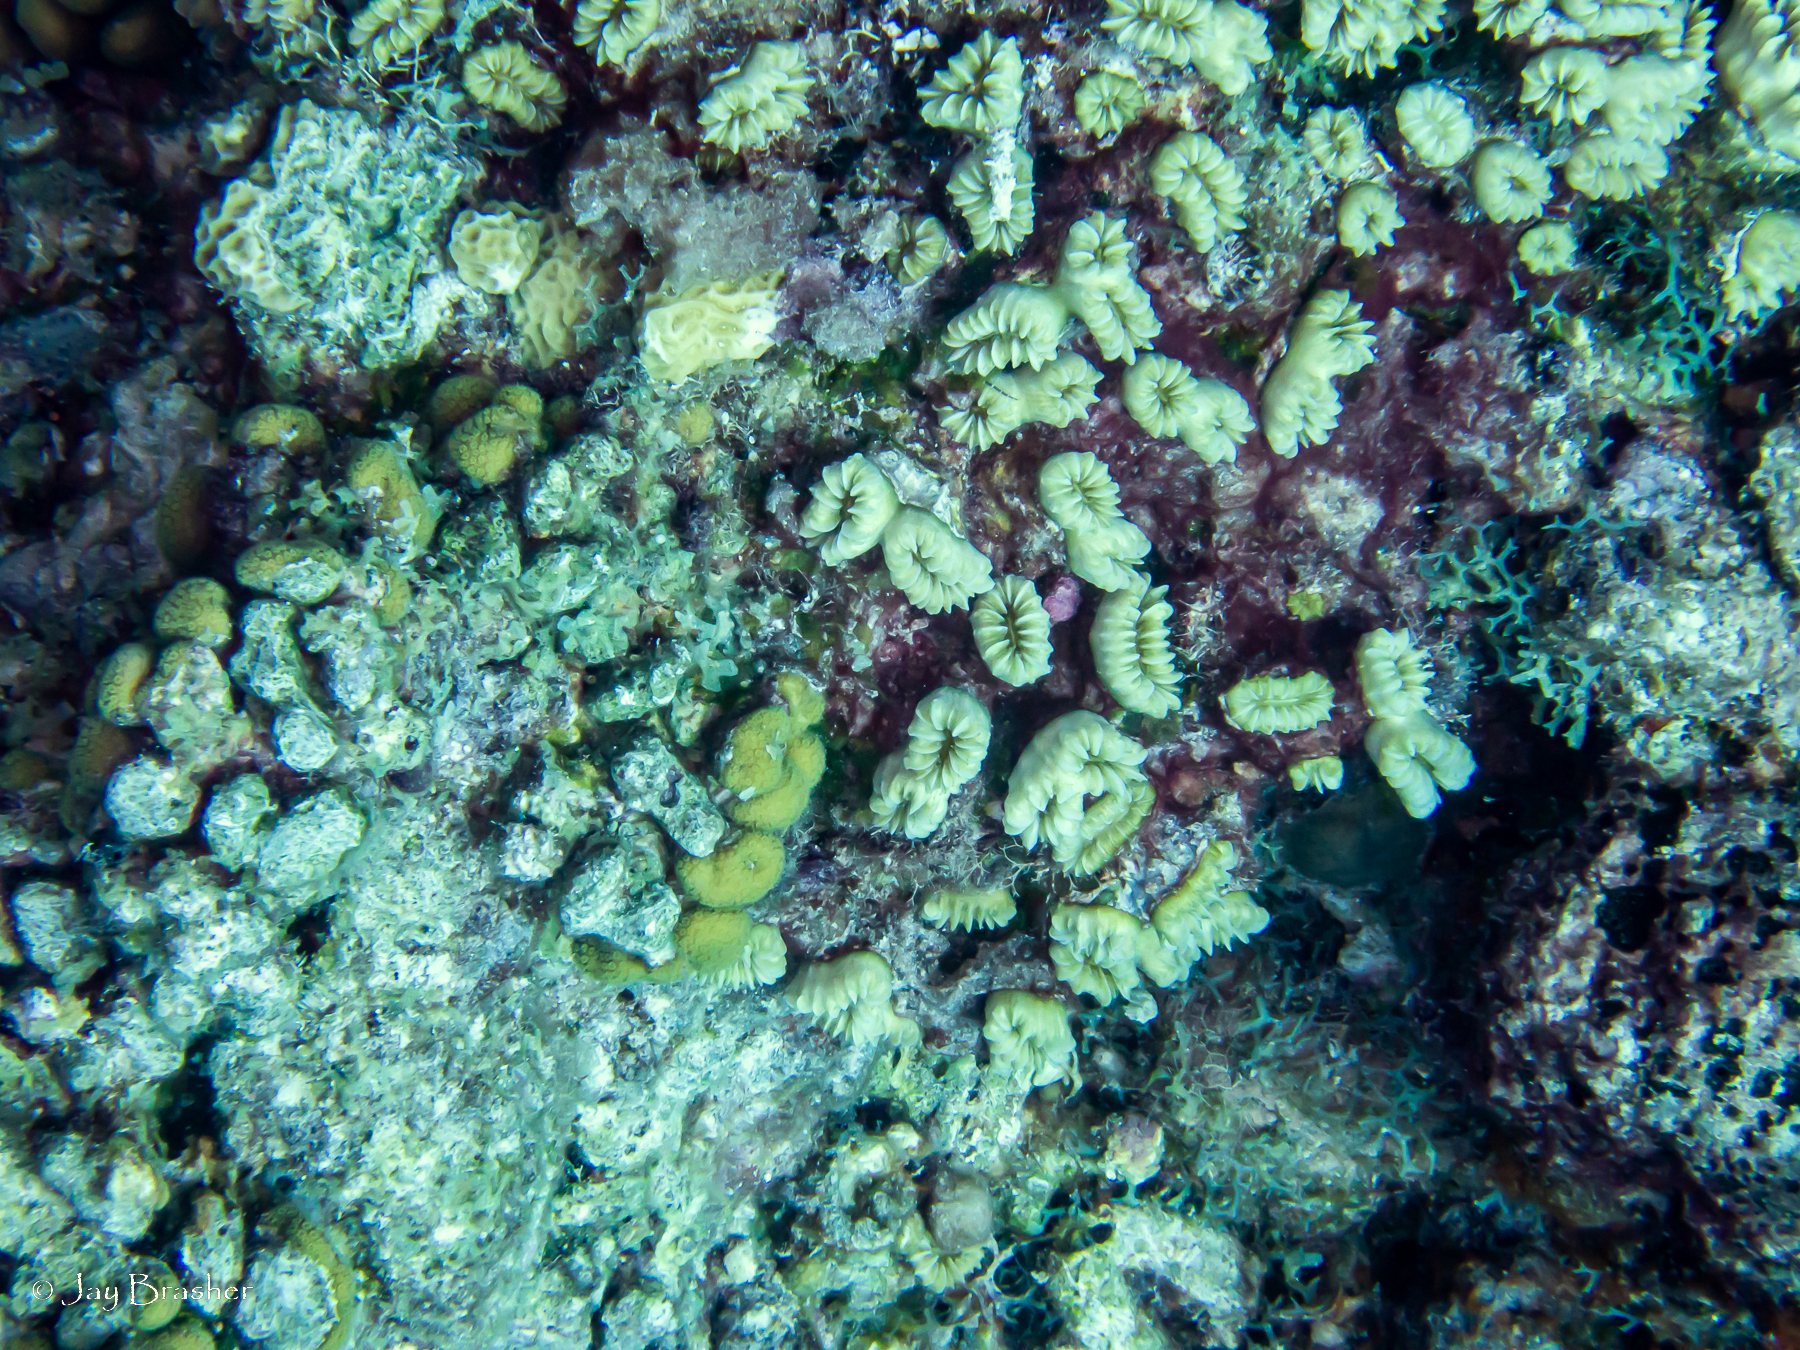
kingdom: Animalia
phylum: Cnidaria
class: Anthozoa
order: Scleractinia
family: Meandrinidae
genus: Eusmilia
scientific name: Eusmilia fastigiata
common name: Smooth flower coral
